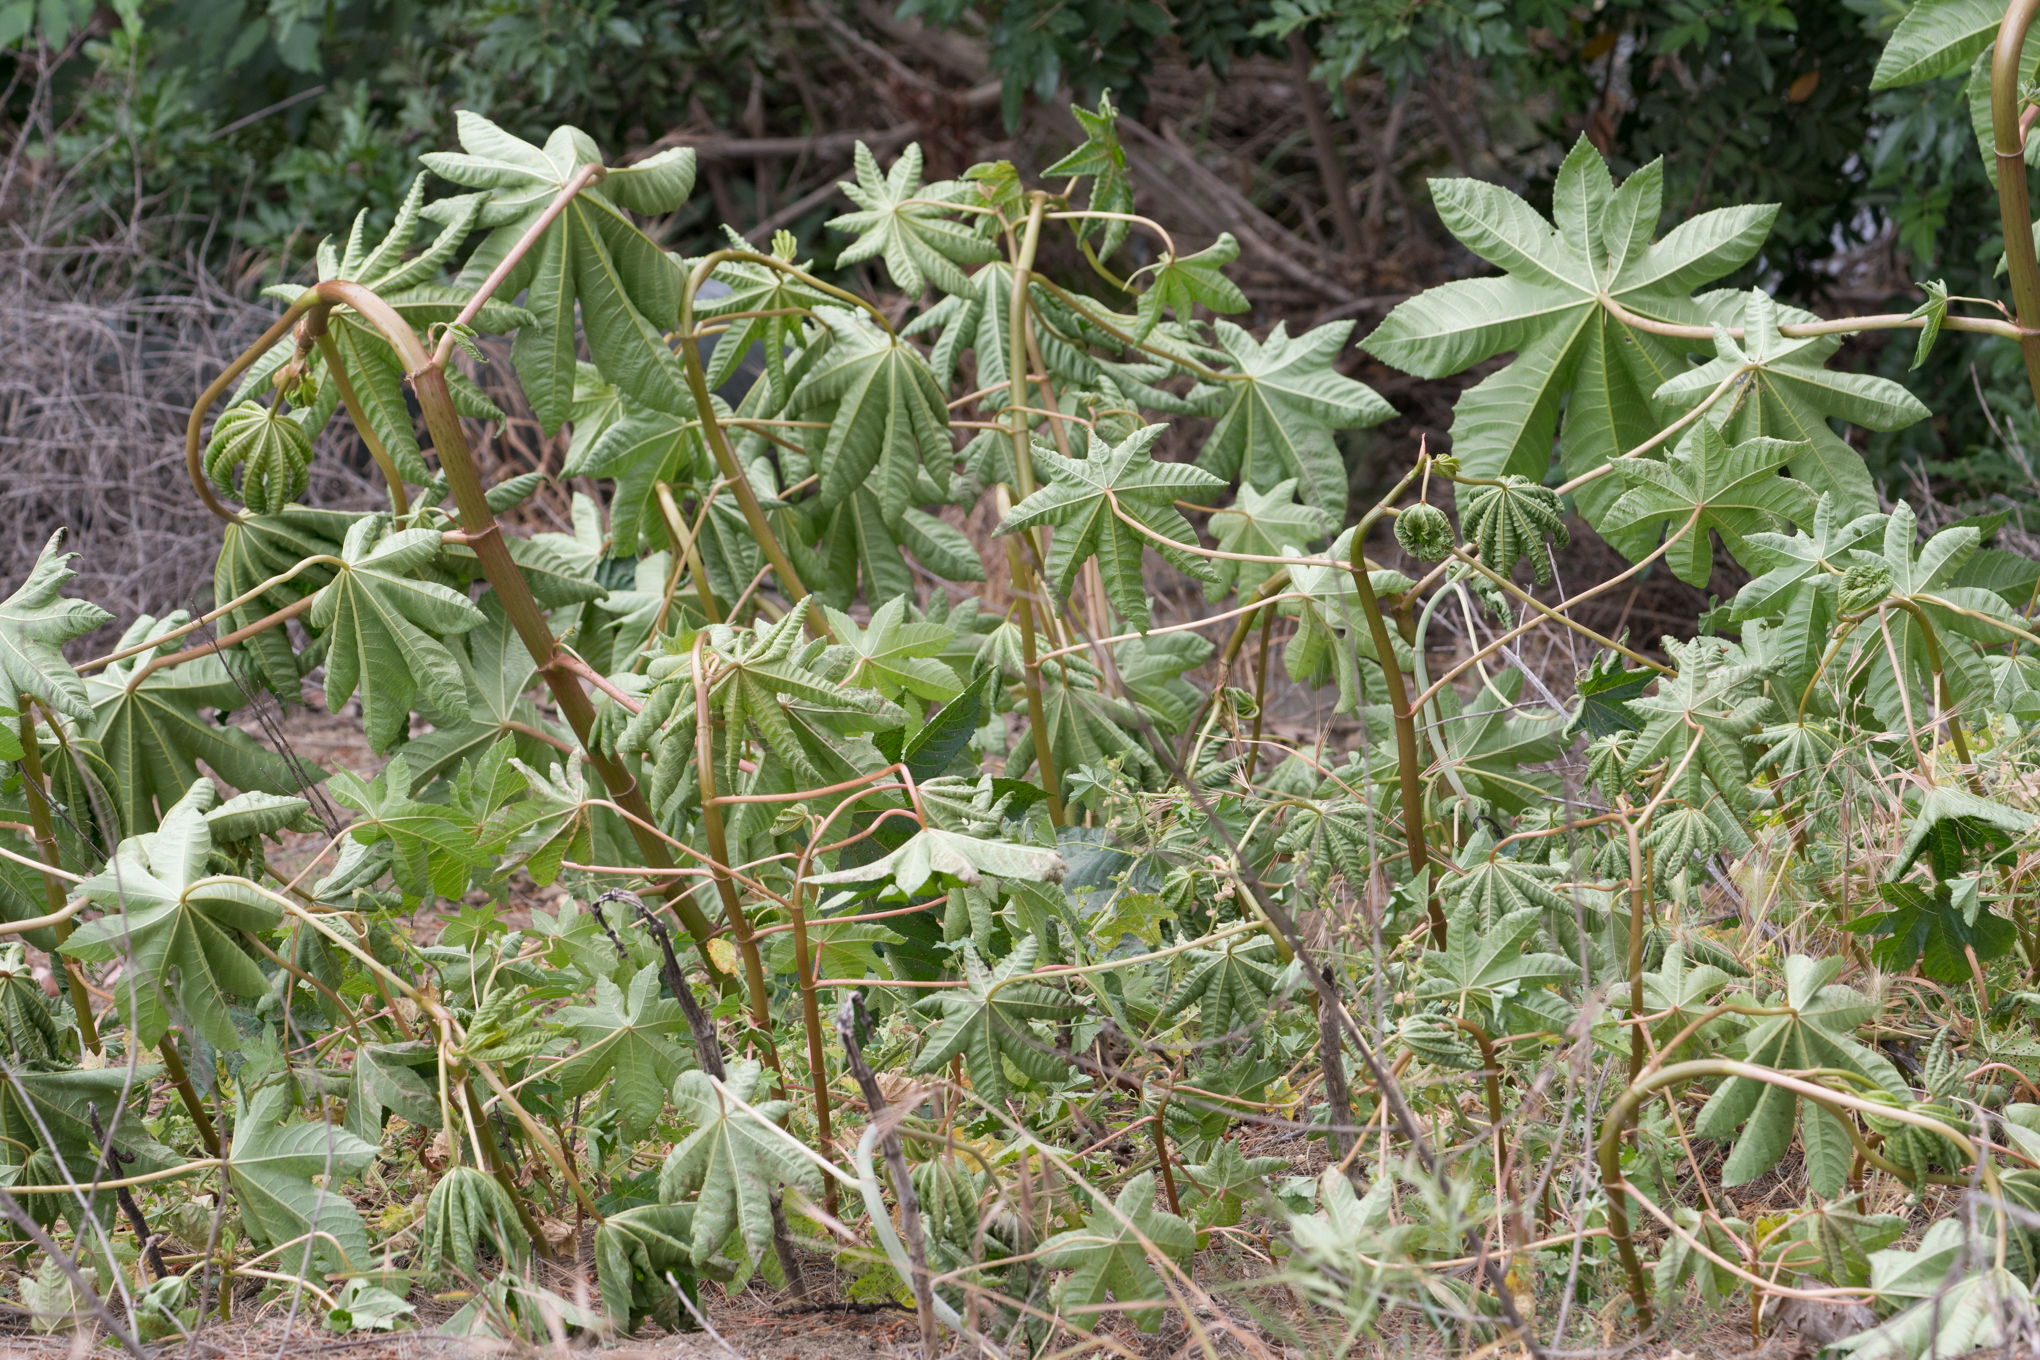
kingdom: Plantae
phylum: Tracheophyta
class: Magnoliopsida
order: Malpighiales
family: Euphorbiaceae
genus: Ricinus
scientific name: Ricinus communis
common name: Castor-oil-plant
